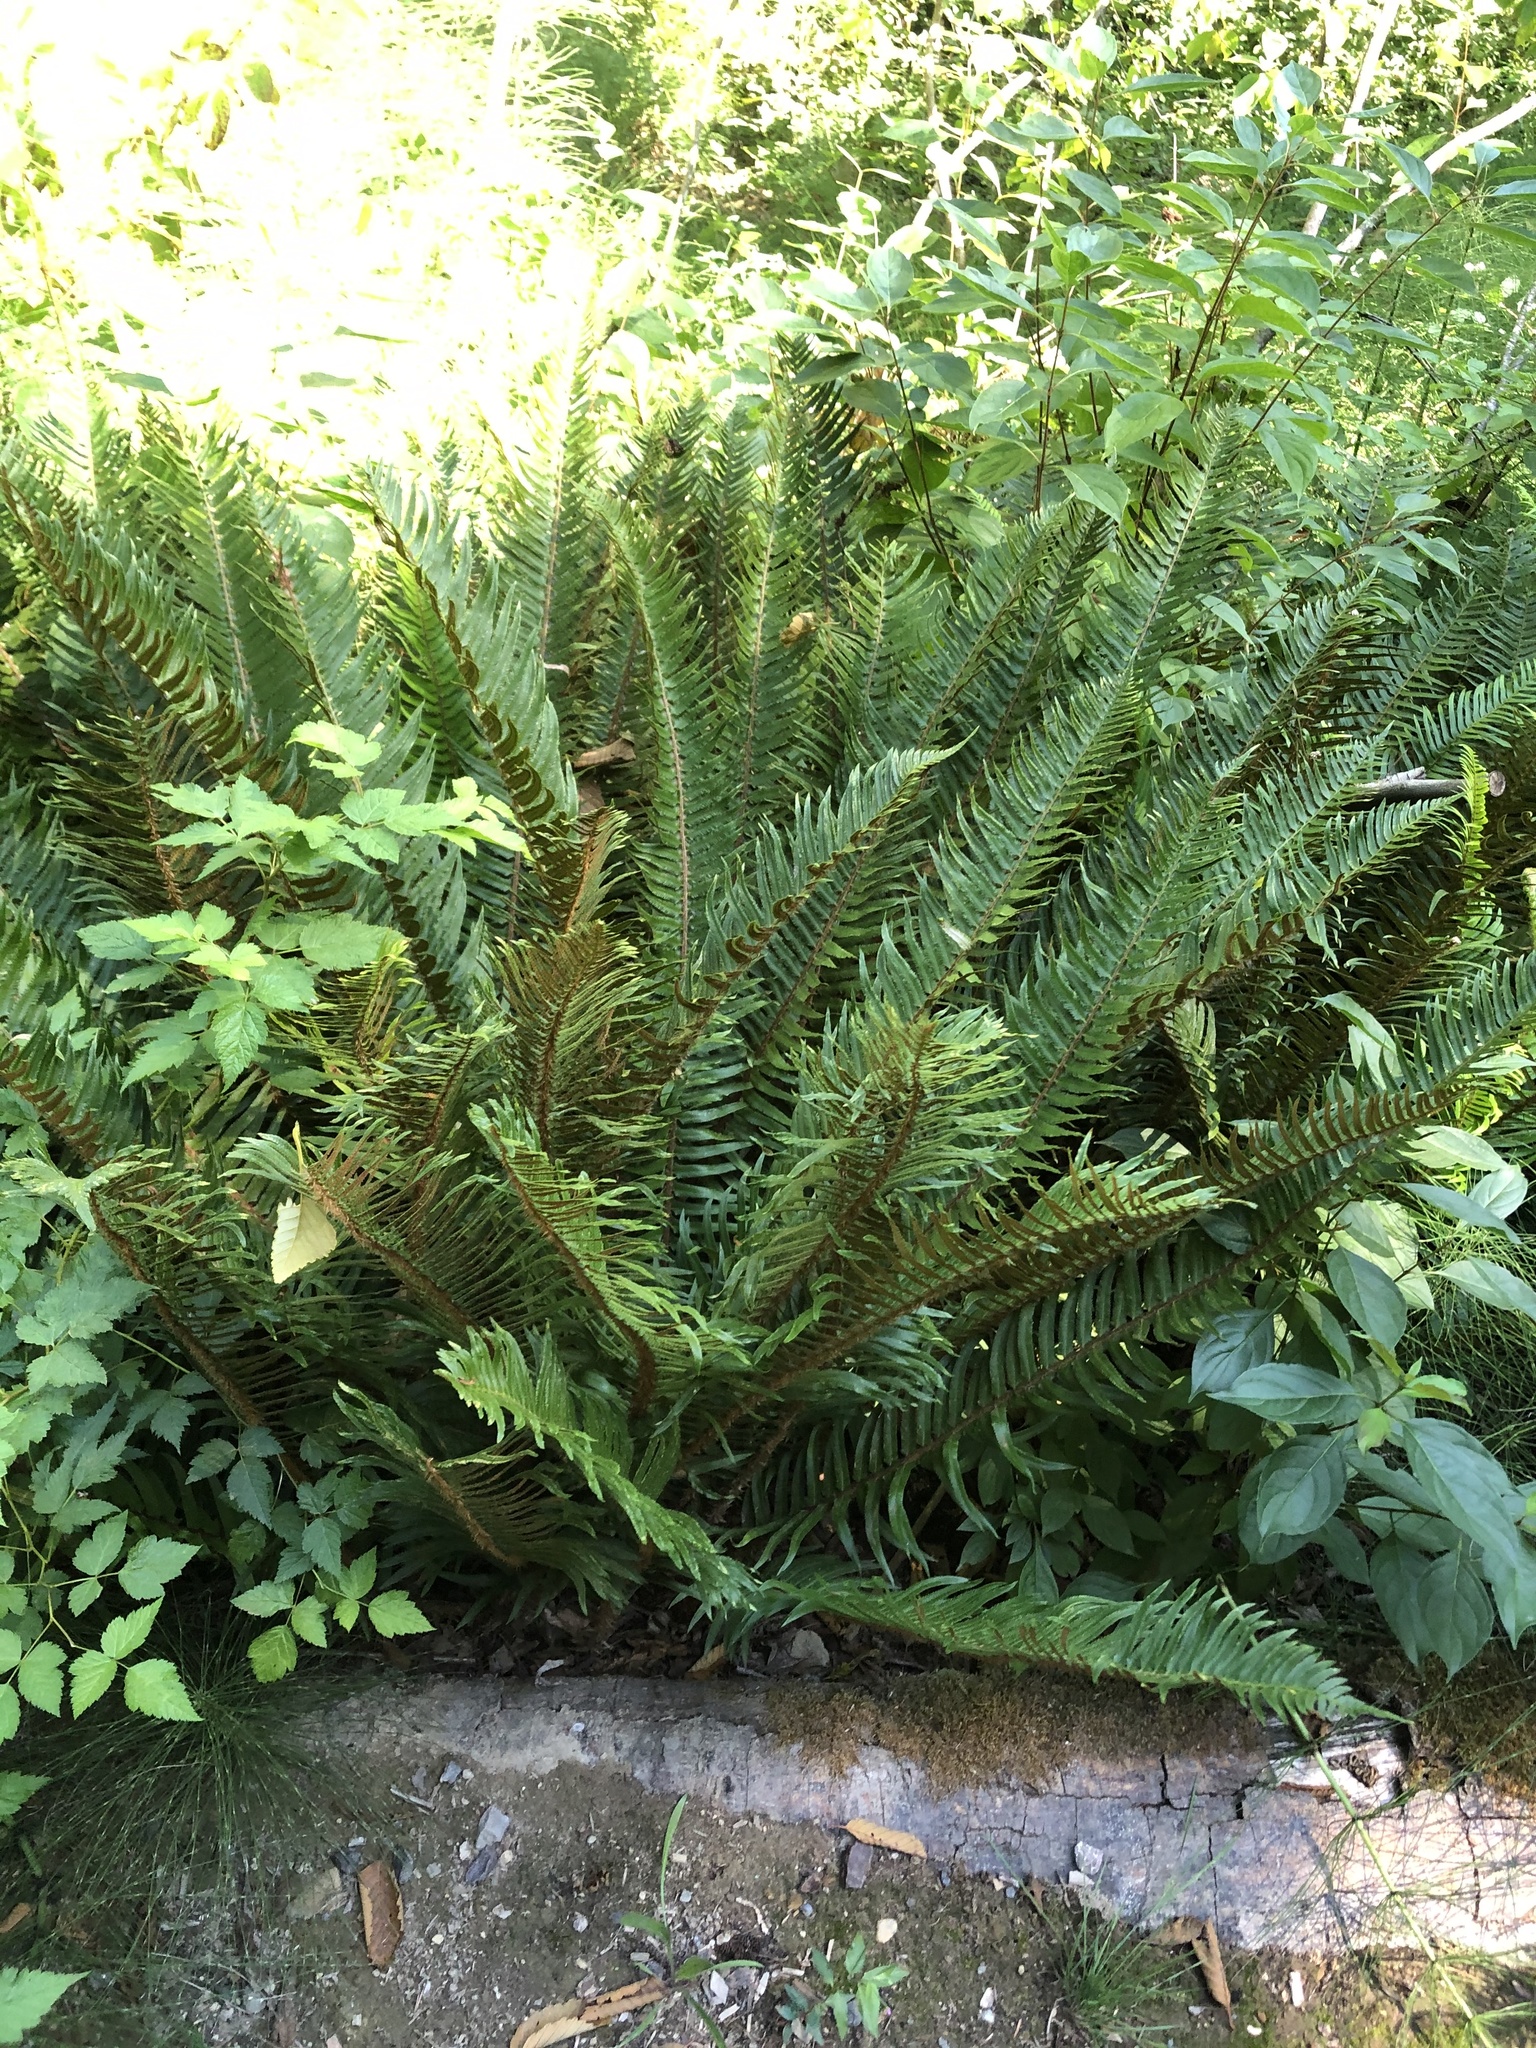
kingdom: Plantae
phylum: Tracheophyta
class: Polypodiopsida
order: Polypodiales
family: Dryopteridaceae
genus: Polystichum
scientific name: Polystichum munitum
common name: Western sword-fern
